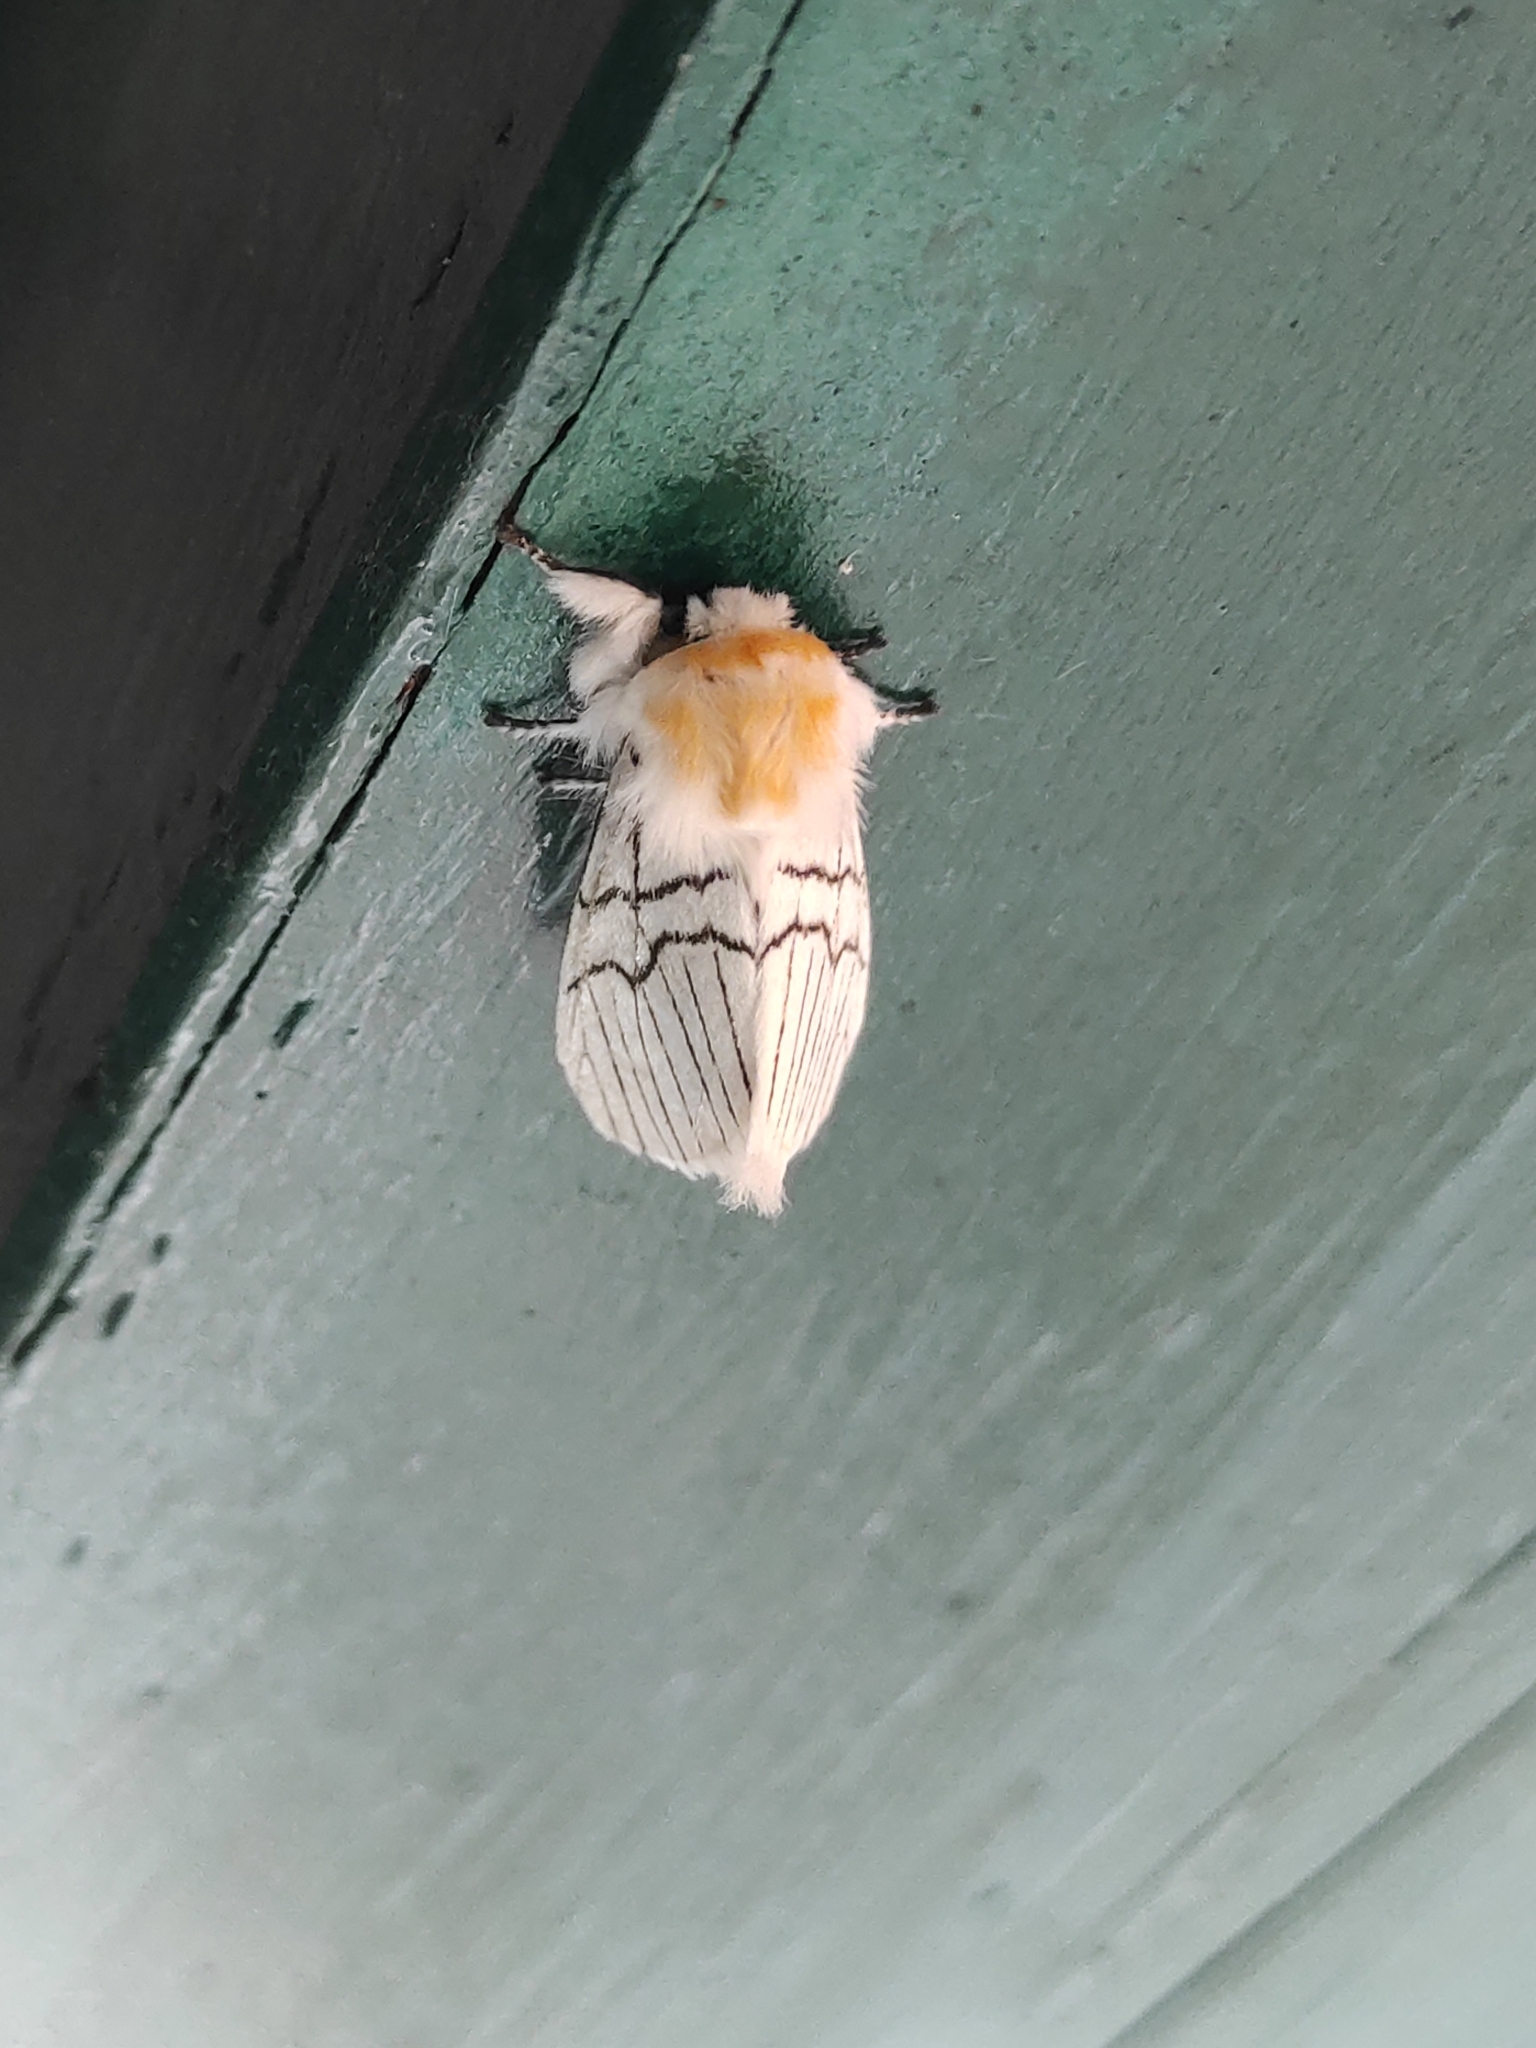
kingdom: Animalia
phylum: Arthropoda
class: Insecta
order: Lepidoptera
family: Notodontidae
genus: Oligoclona
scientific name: Oligoclona chrysolopha
